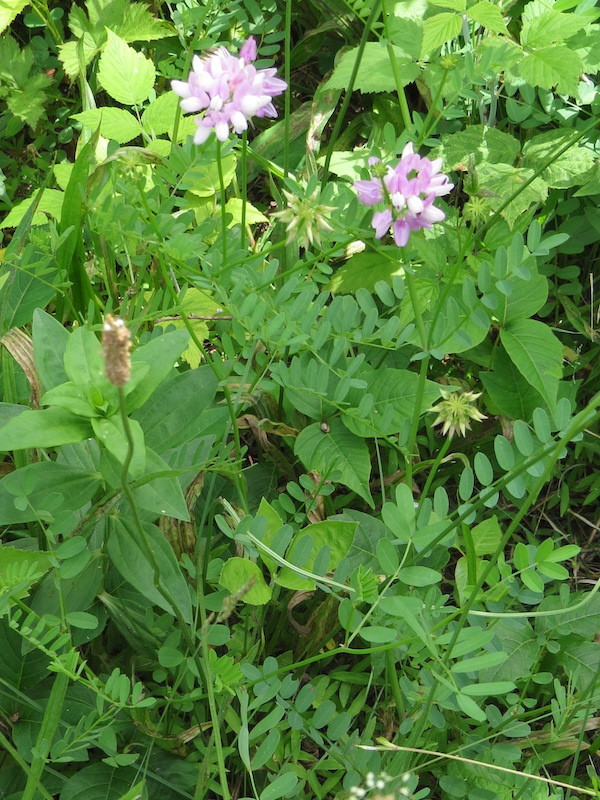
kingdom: Plantae
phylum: Tracheophyta
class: Magnoliopsida
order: Fabales
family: Fabaceae
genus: Coronilla
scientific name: Coronilla varia
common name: Crownvetch
